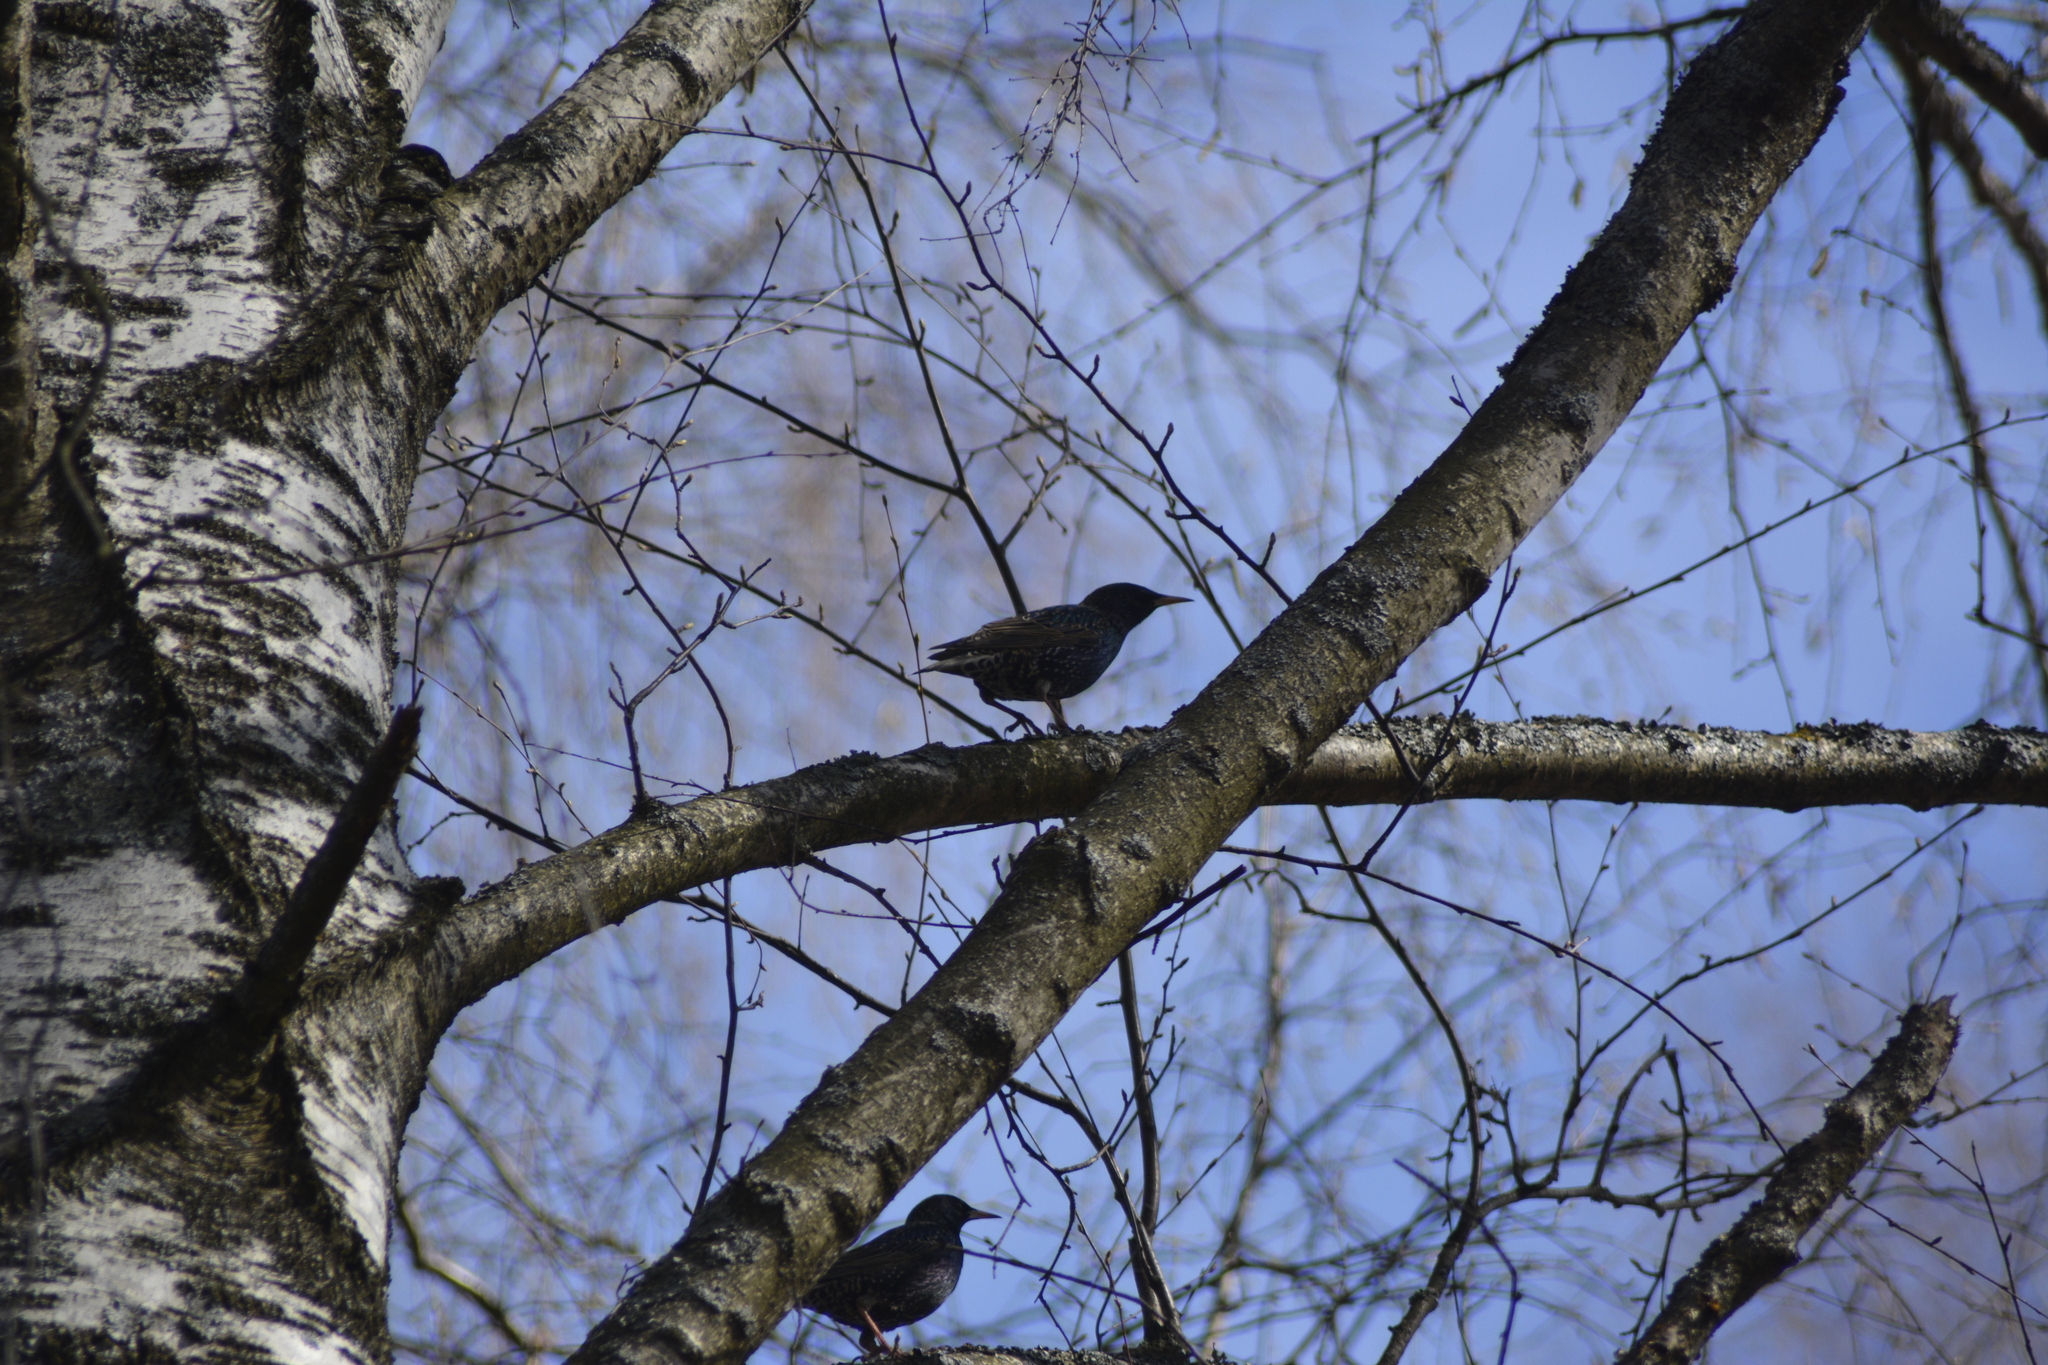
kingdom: Animalia
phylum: Chordata
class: Aves
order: Passeriformes
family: Sturnidae
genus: Sturnus
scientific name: Sturnus vulgaris
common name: Common starling
